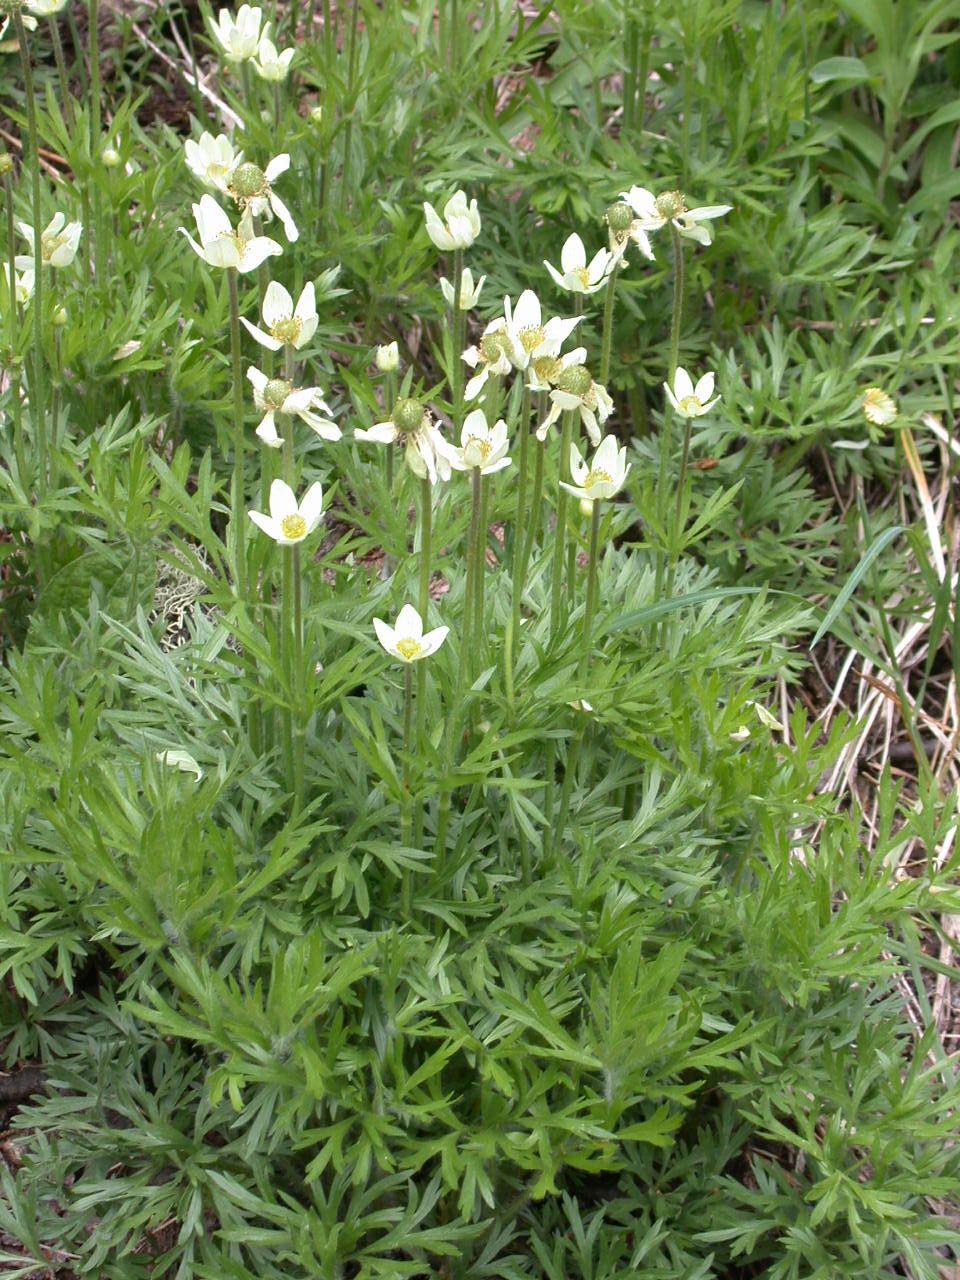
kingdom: Plantae
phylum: Tracheophyta
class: Magnoliopsida
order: Ranunculales
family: Ranunculaceae
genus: Anemone
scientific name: Anemone multifida
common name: Bird's-foot anemone
